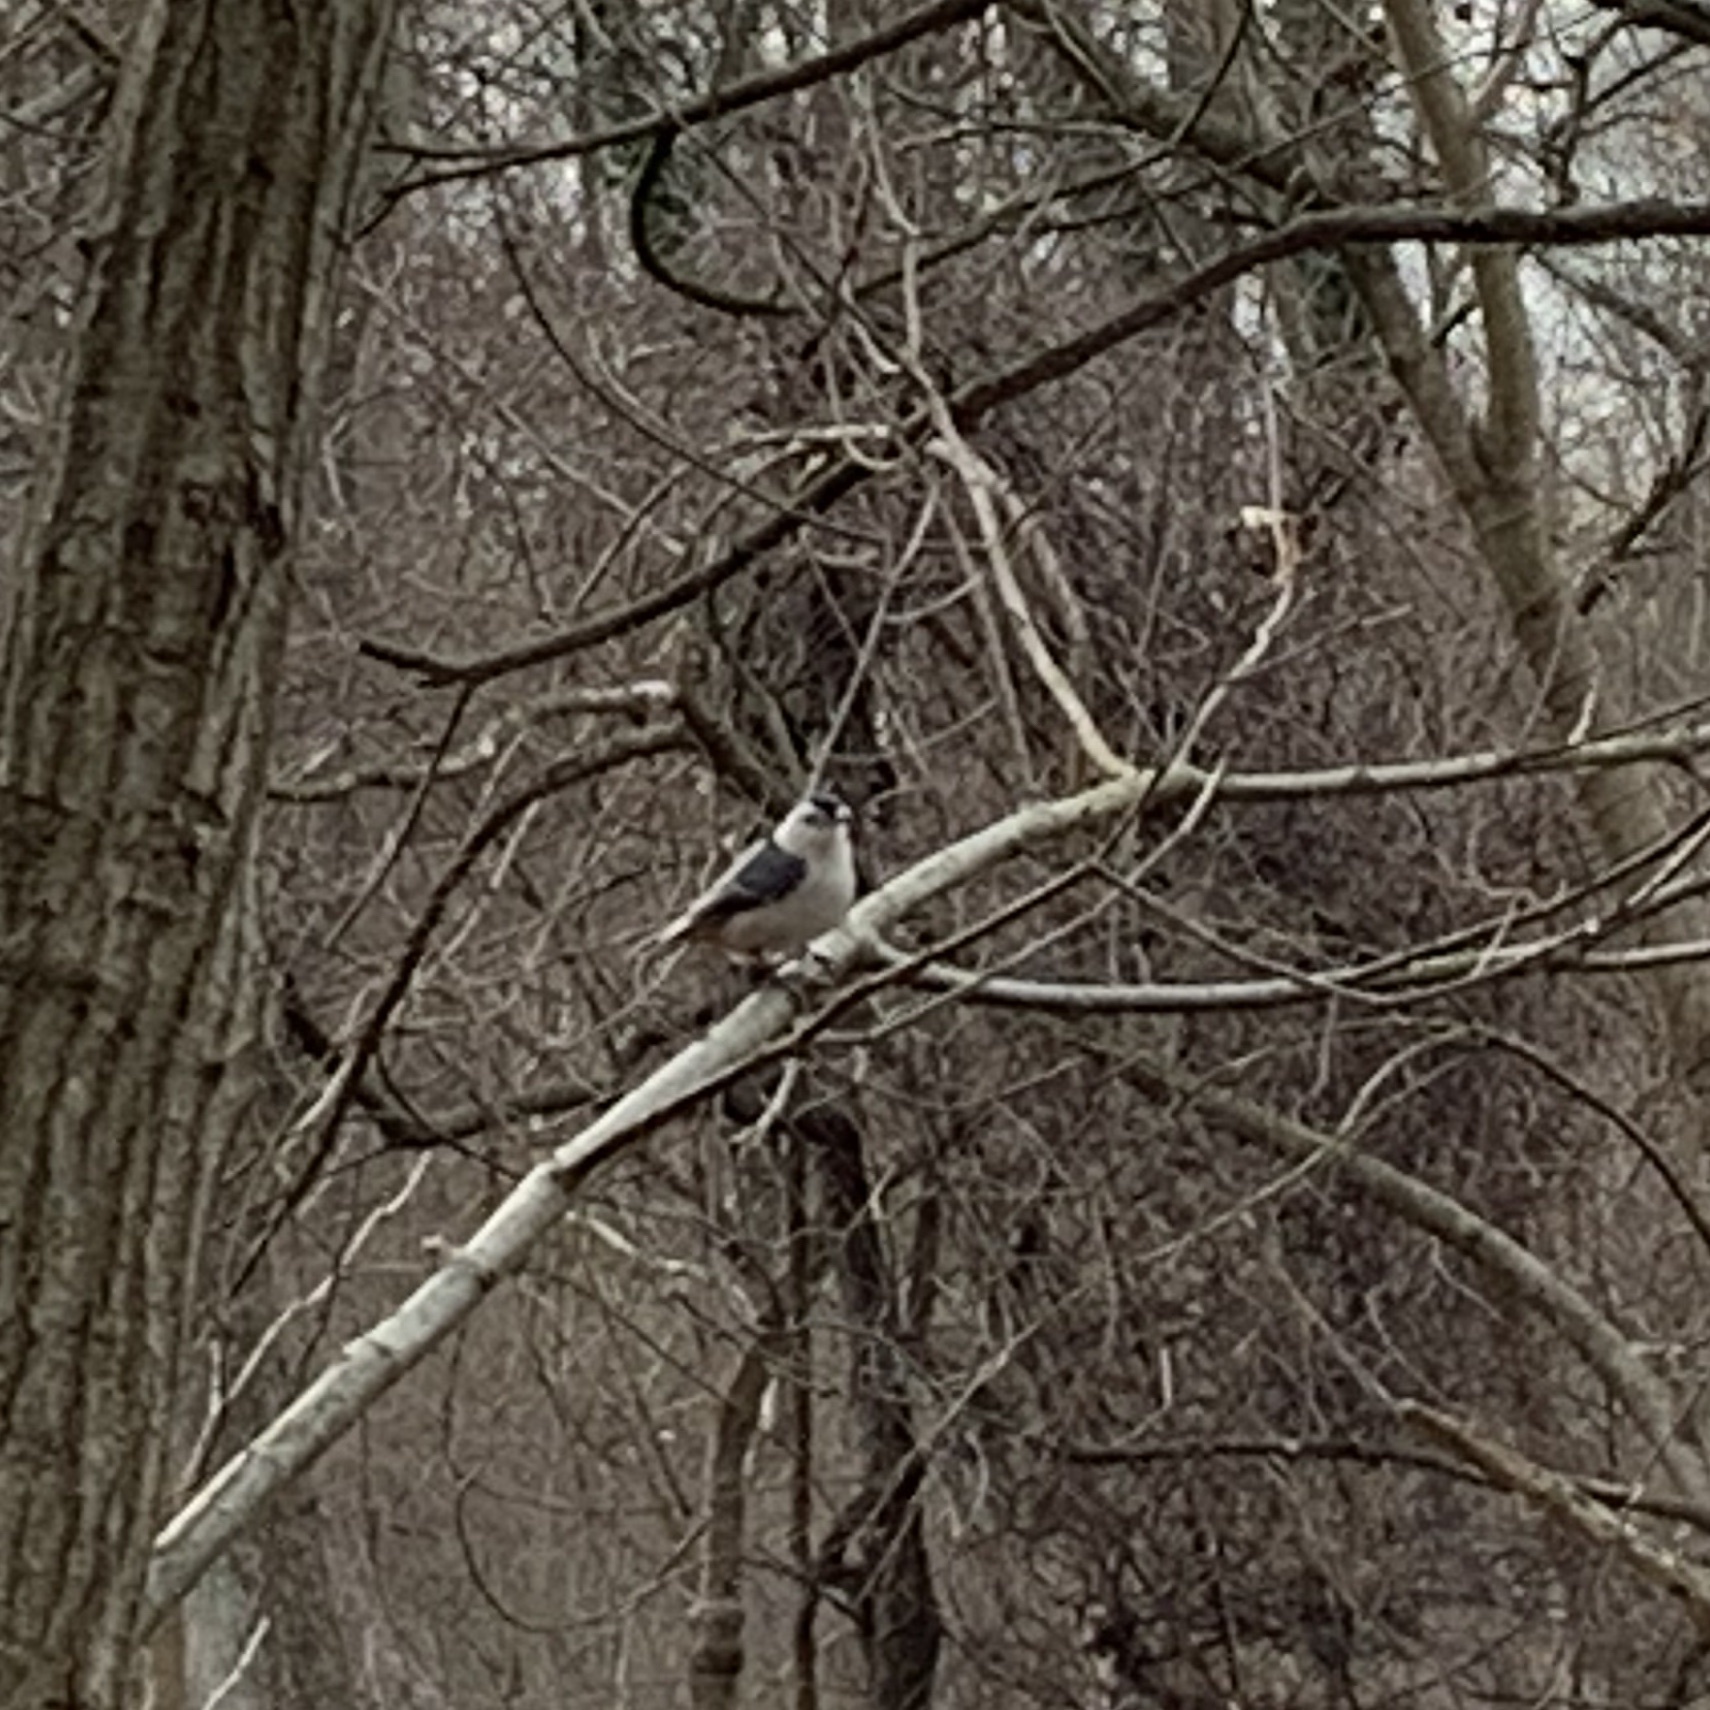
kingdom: Animalia
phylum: Chordata
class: Aves
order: Passeriformes
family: Sittidae
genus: Sitta
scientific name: Sitta carolinensis
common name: White-breasted nuthatch
